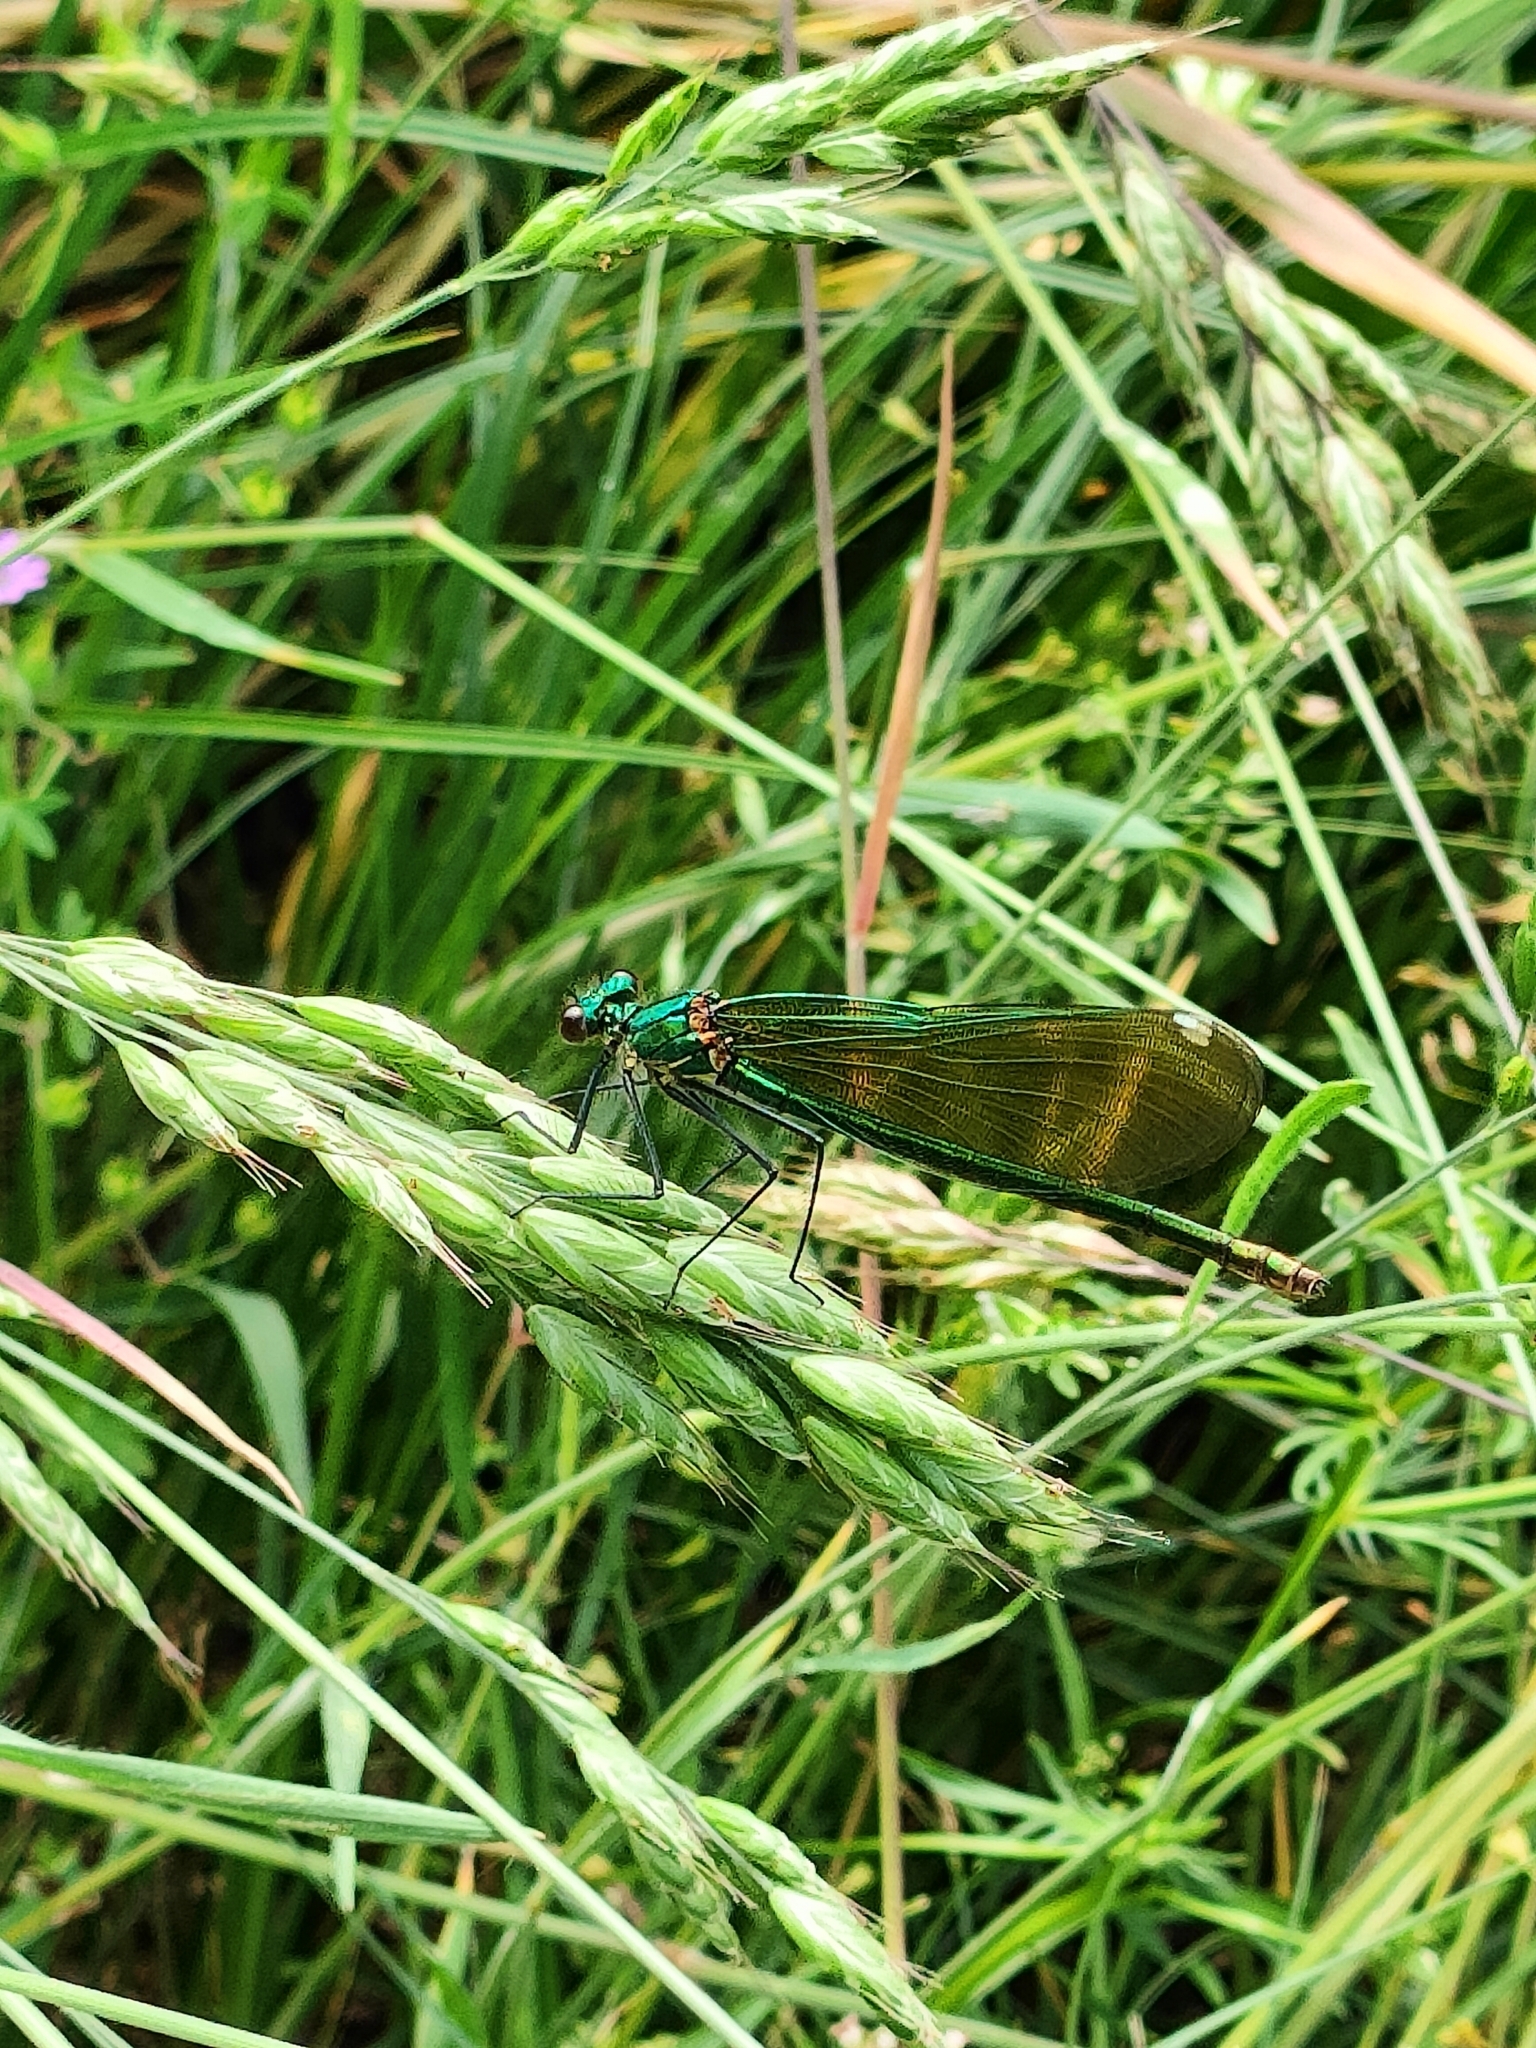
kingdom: Animalia
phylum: Arthropoda
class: Insecta
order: Odonata
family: Calopterygidae
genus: Calopteryx
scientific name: Calopteryx splendens
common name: Banded demoiselle
